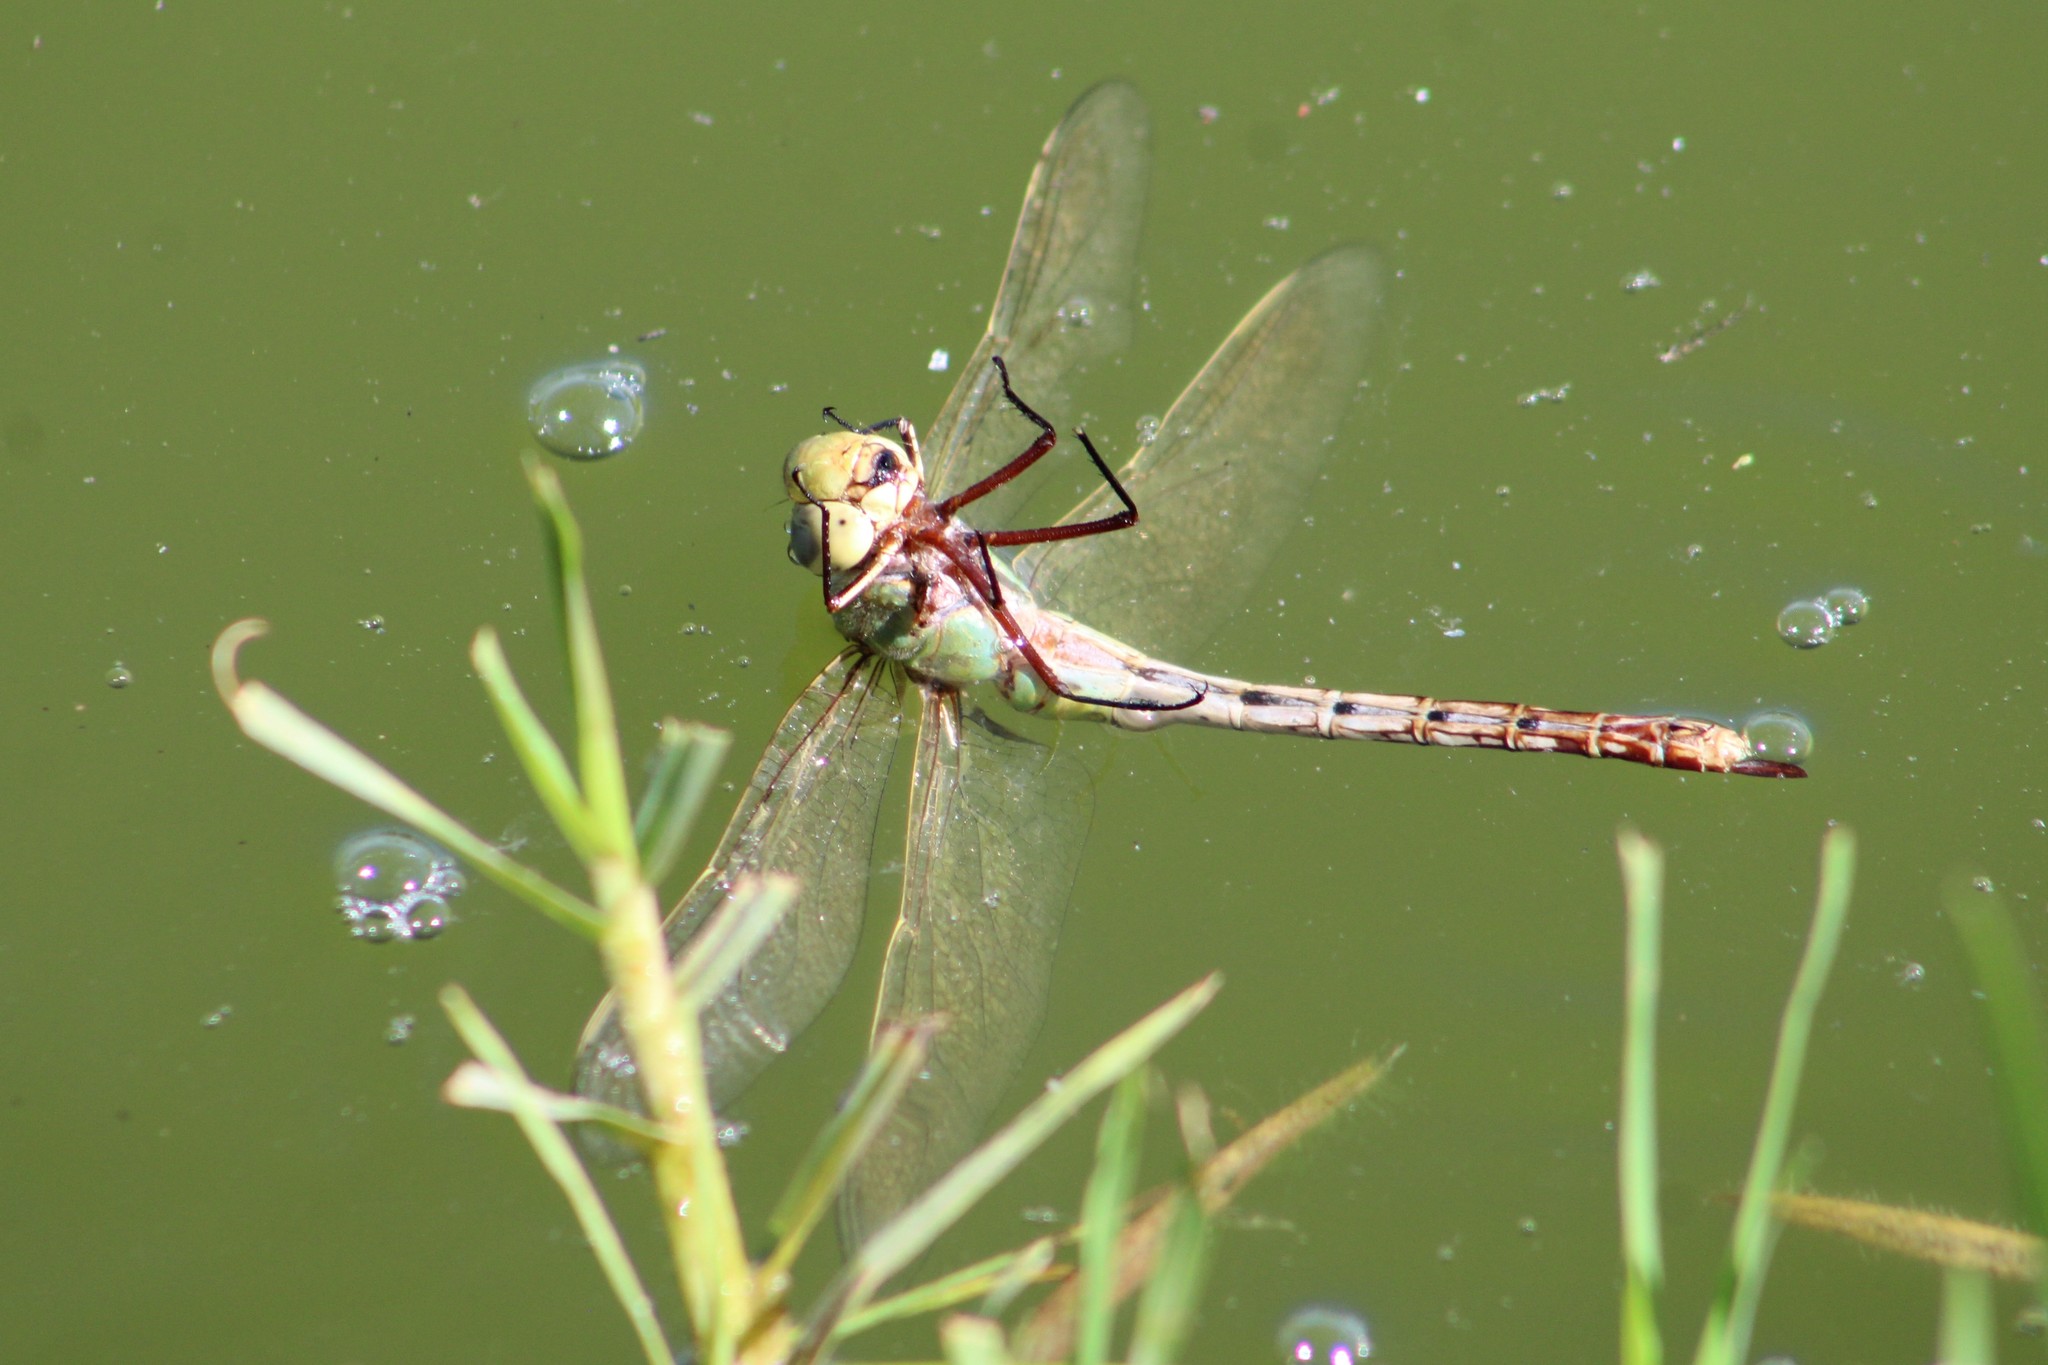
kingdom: Animalia
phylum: Arthropoda
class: Insecta
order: Odonata
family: Aeshnidae
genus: Anax
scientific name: Anax junius
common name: Common green darner
